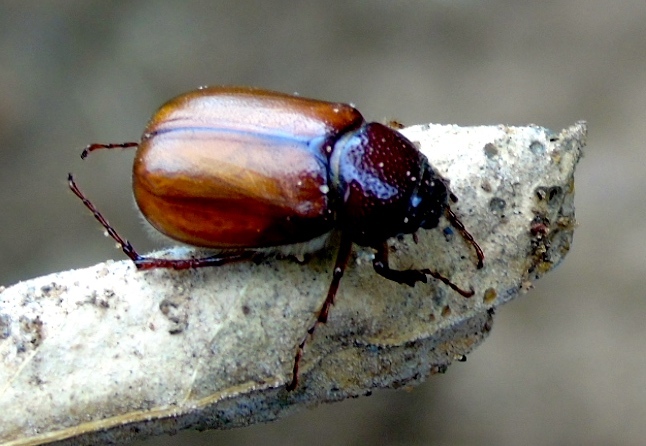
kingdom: Animalia
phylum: Arthropoda
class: Insecta
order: Coleoptera
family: Scarabaeidae
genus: Diplotaxis
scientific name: Diplotaxis
